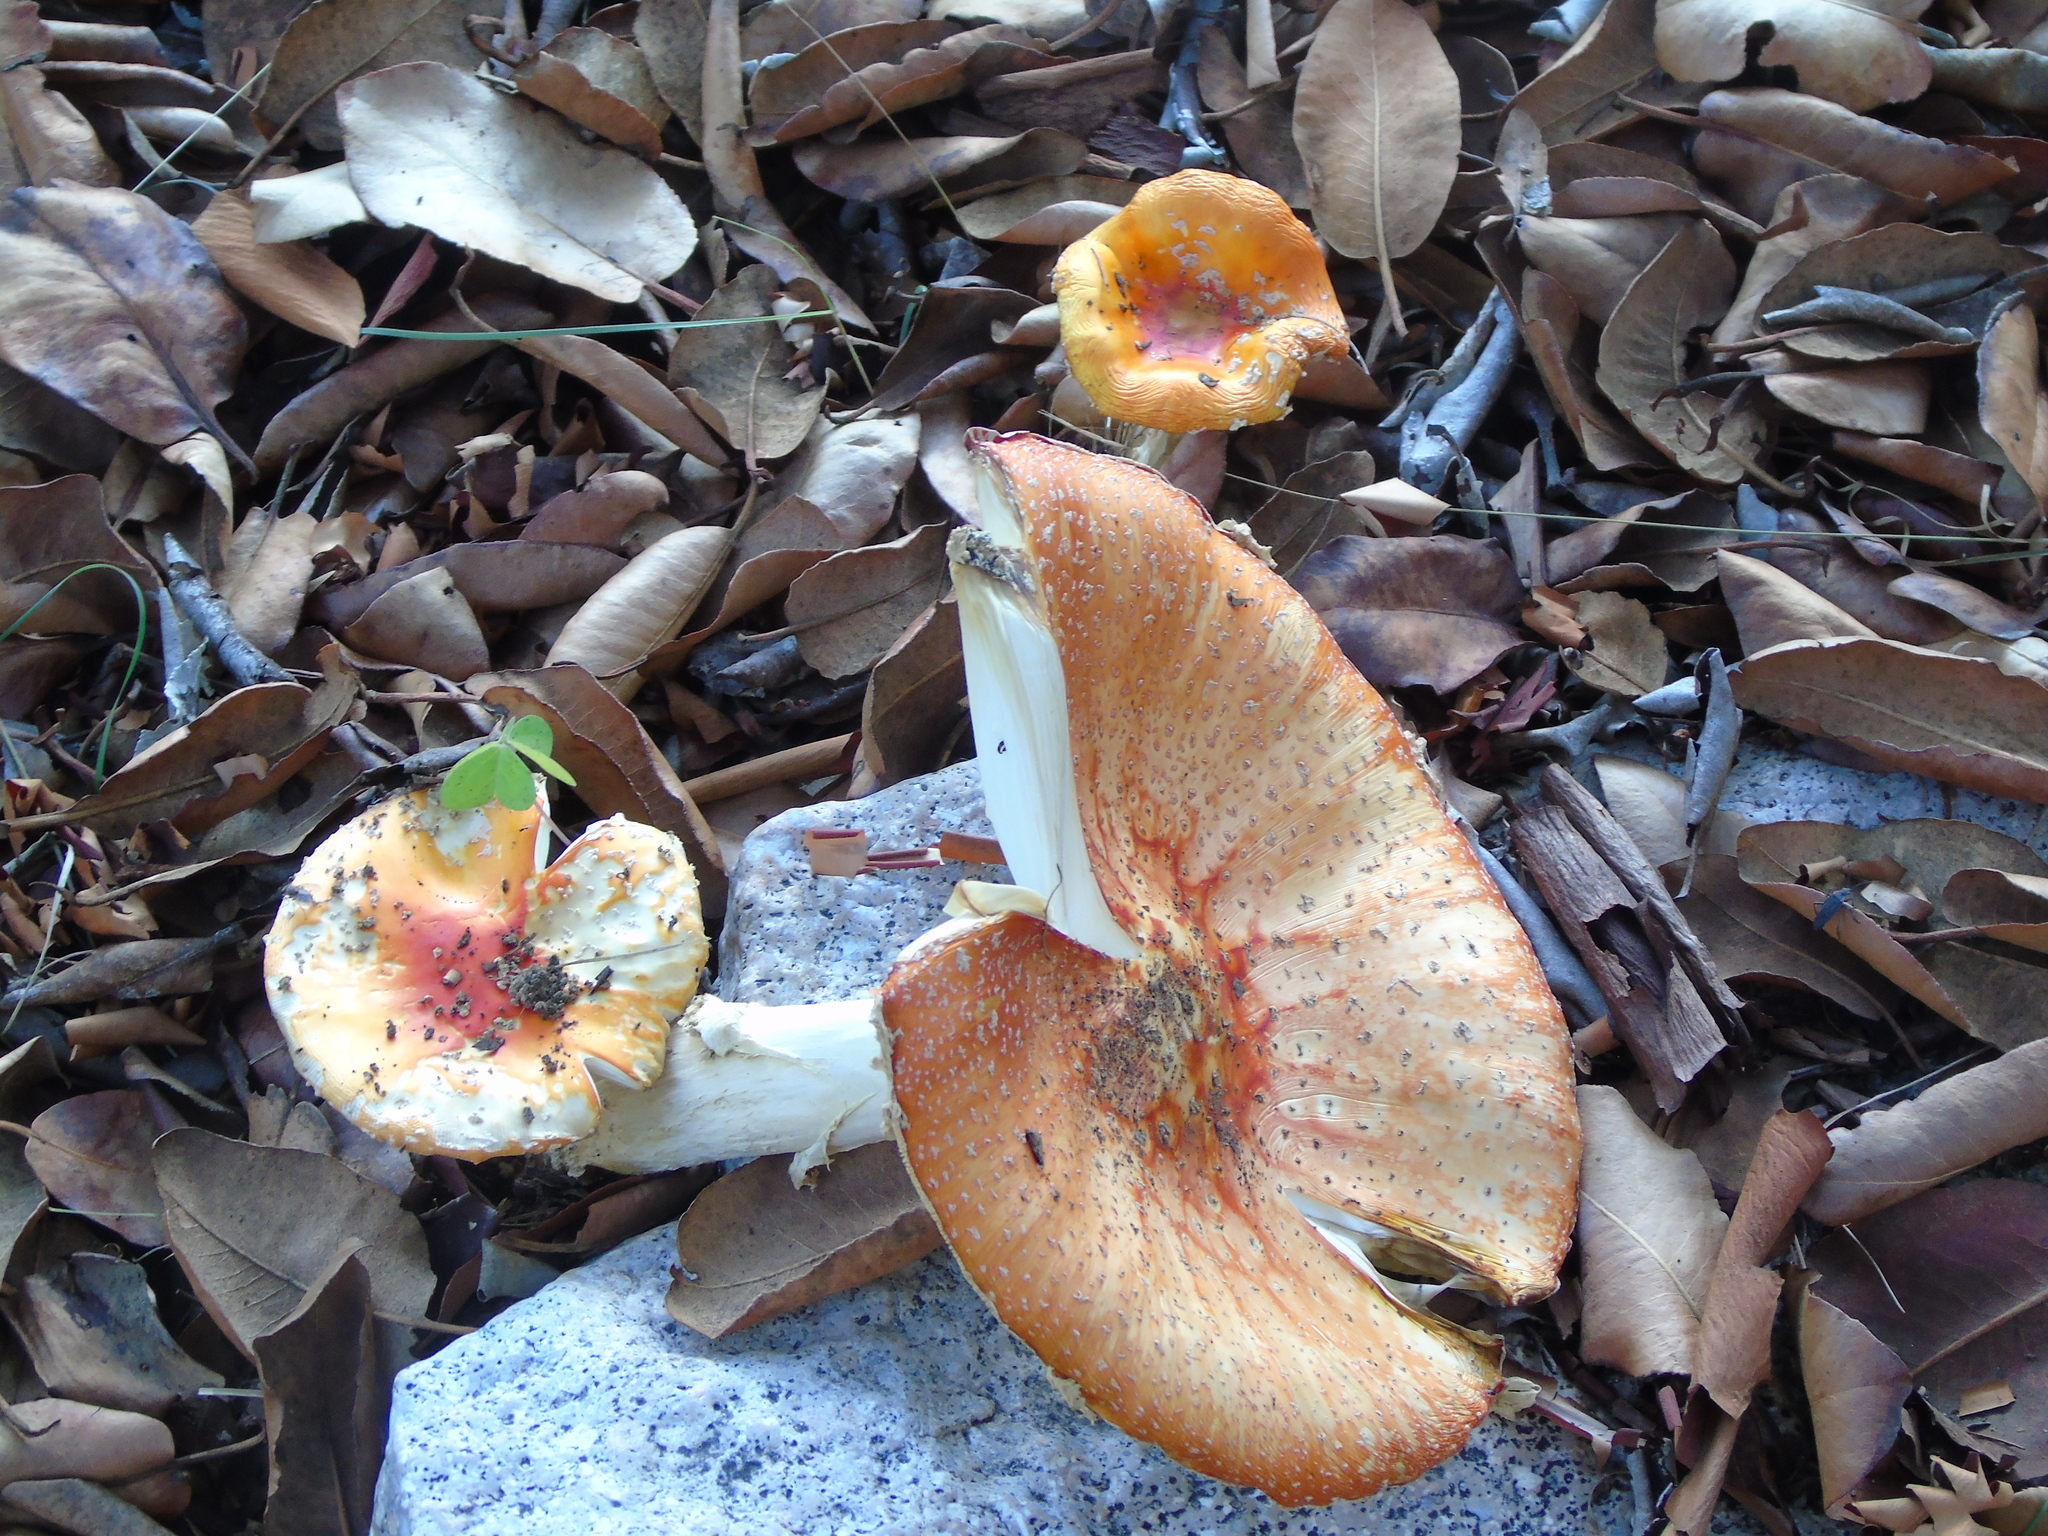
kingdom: Fungi
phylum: Basidiomycota
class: Agaricomycetes
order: Agaricales
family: Amanitaceae
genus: Amanita
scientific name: Amanita muscaria
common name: Fly agaric
